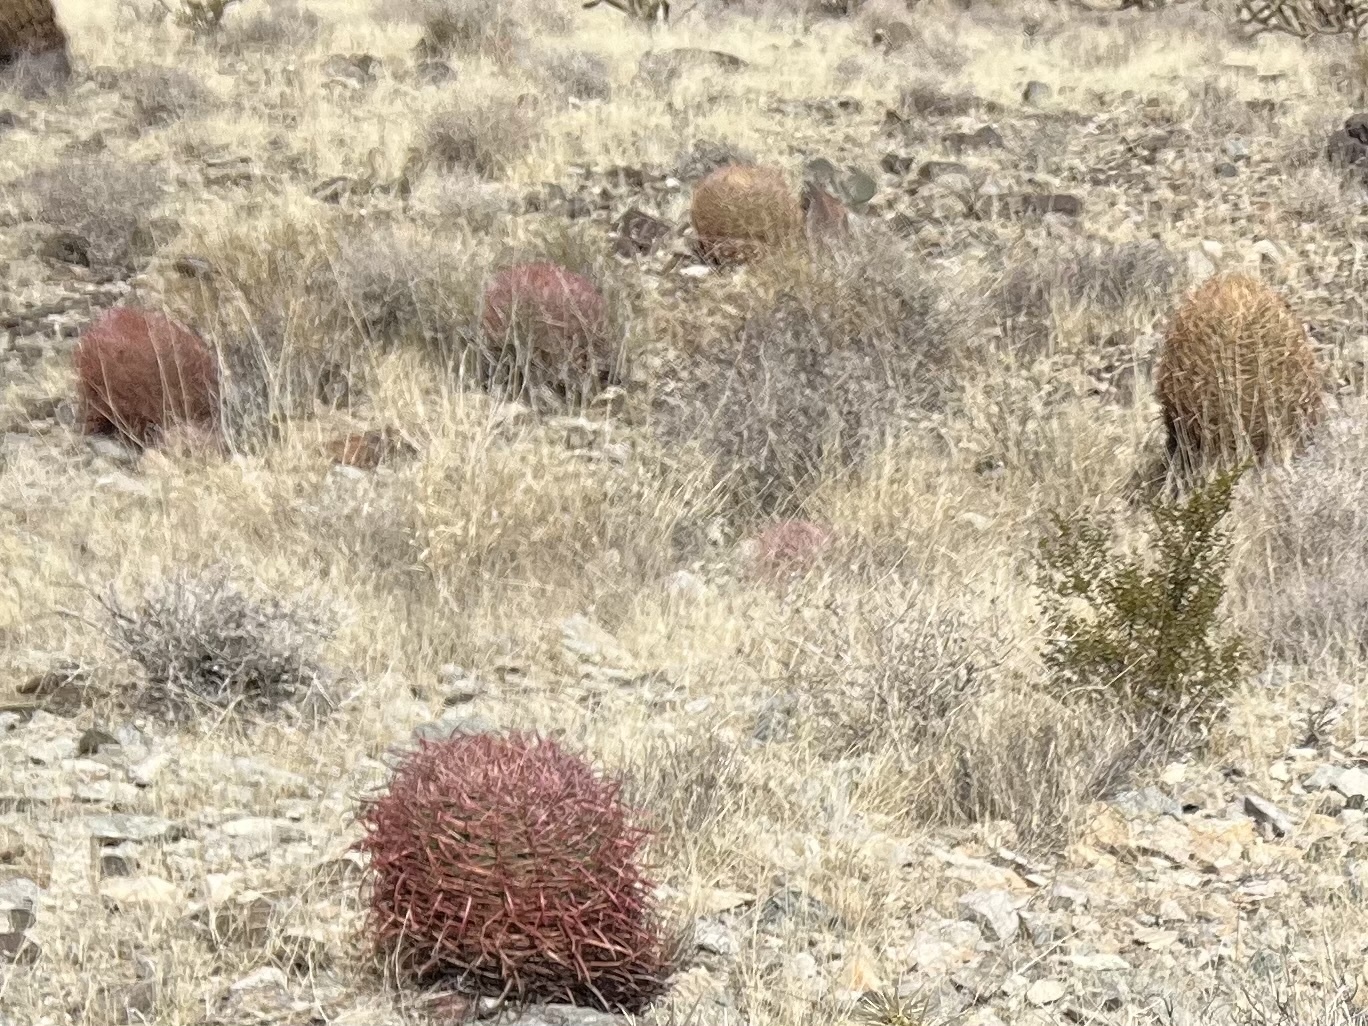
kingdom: Plantae
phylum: Tracheophyta
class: Magnoliopsida
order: Caryophyllales
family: Cactaceae
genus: Ferocactus
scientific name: Ferocactus cylindraceus
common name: California barrel cactus
